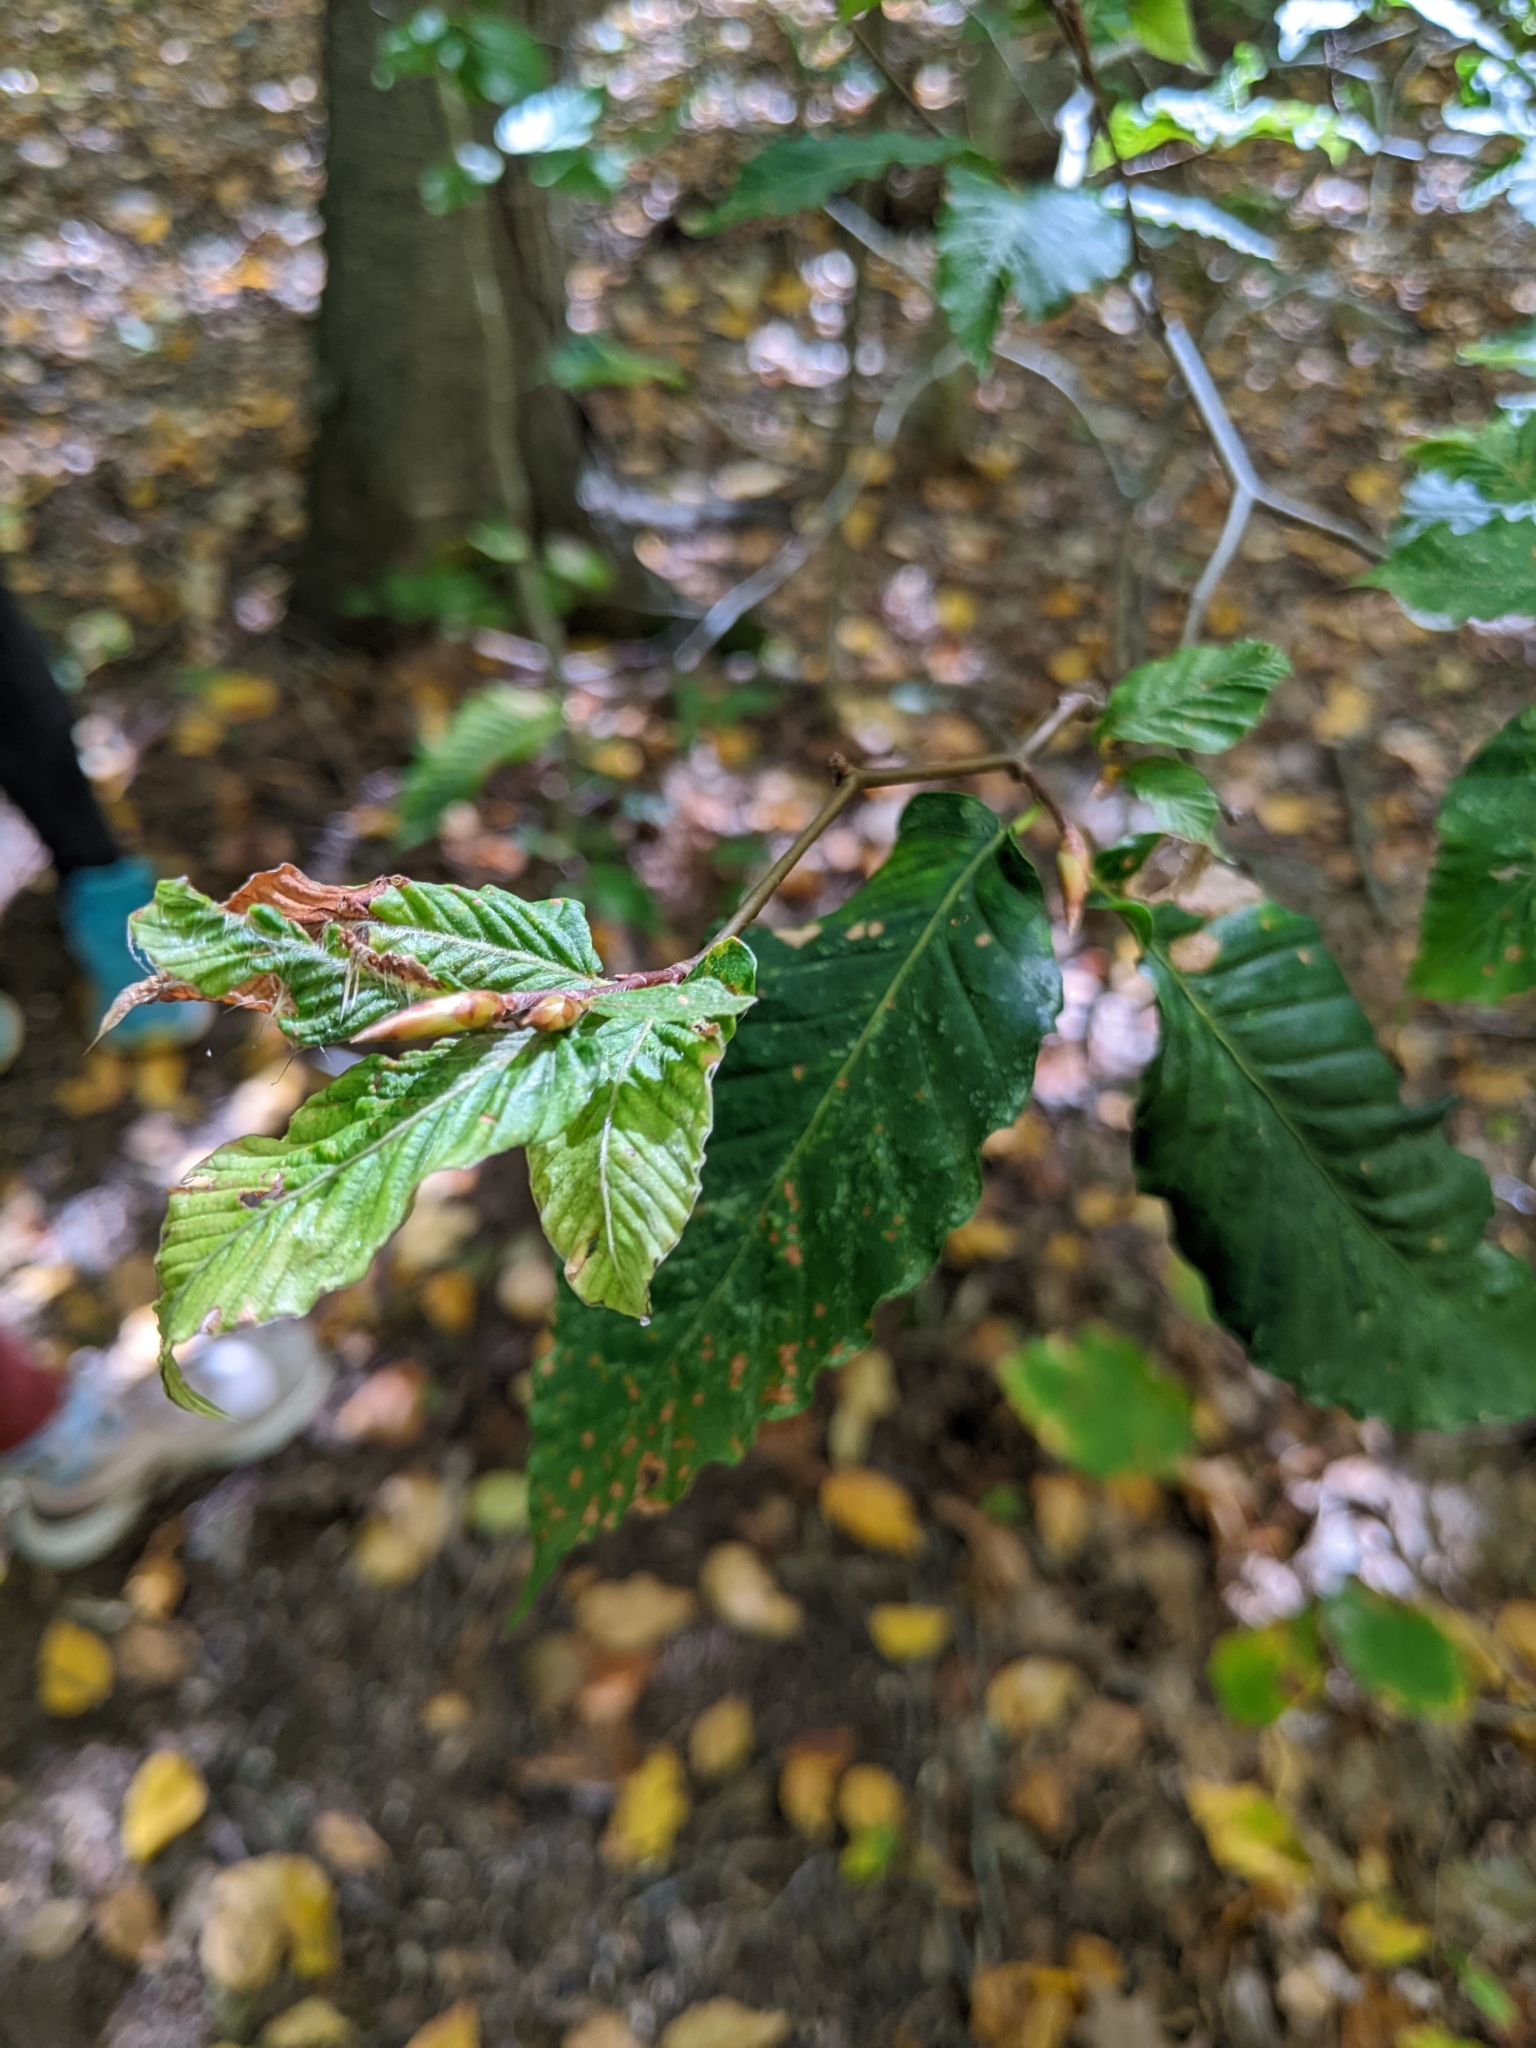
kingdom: Animalia
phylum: Nematoda
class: Chromadorea
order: Rhabditida
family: Anguinidae
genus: Litylenchus
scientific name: Litylenchus crenatae
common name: Beech leaf disease
